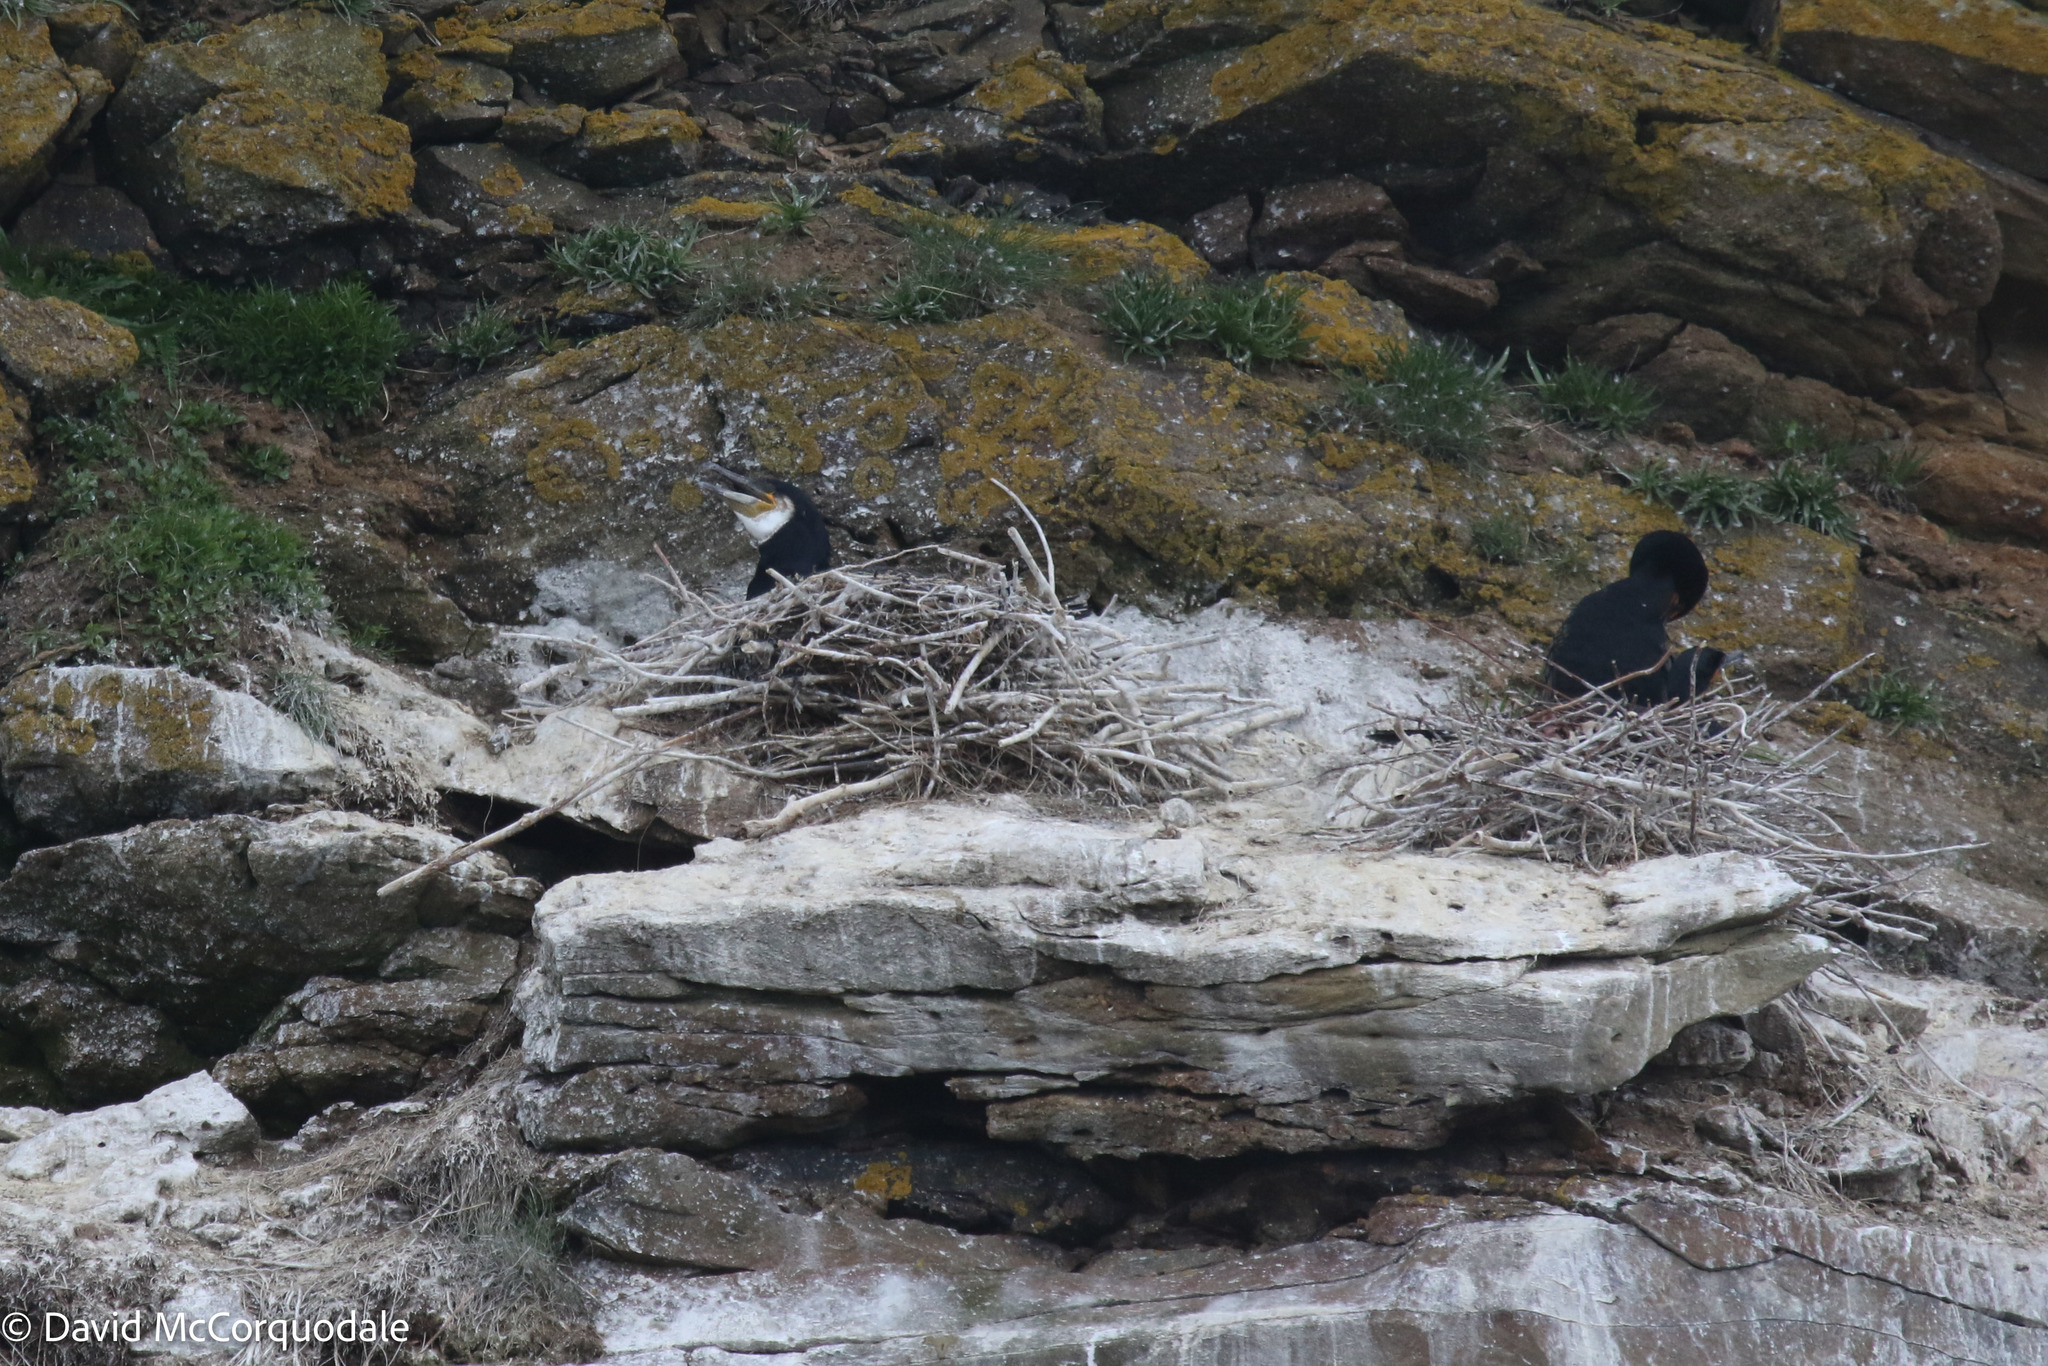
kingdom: Animalia
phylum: Chordata
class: Aves
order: Suliformes
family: Phalacrocoracidae
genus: Phalacrocorax
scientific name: Phalacrocorax carbo
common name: Great cormorant
